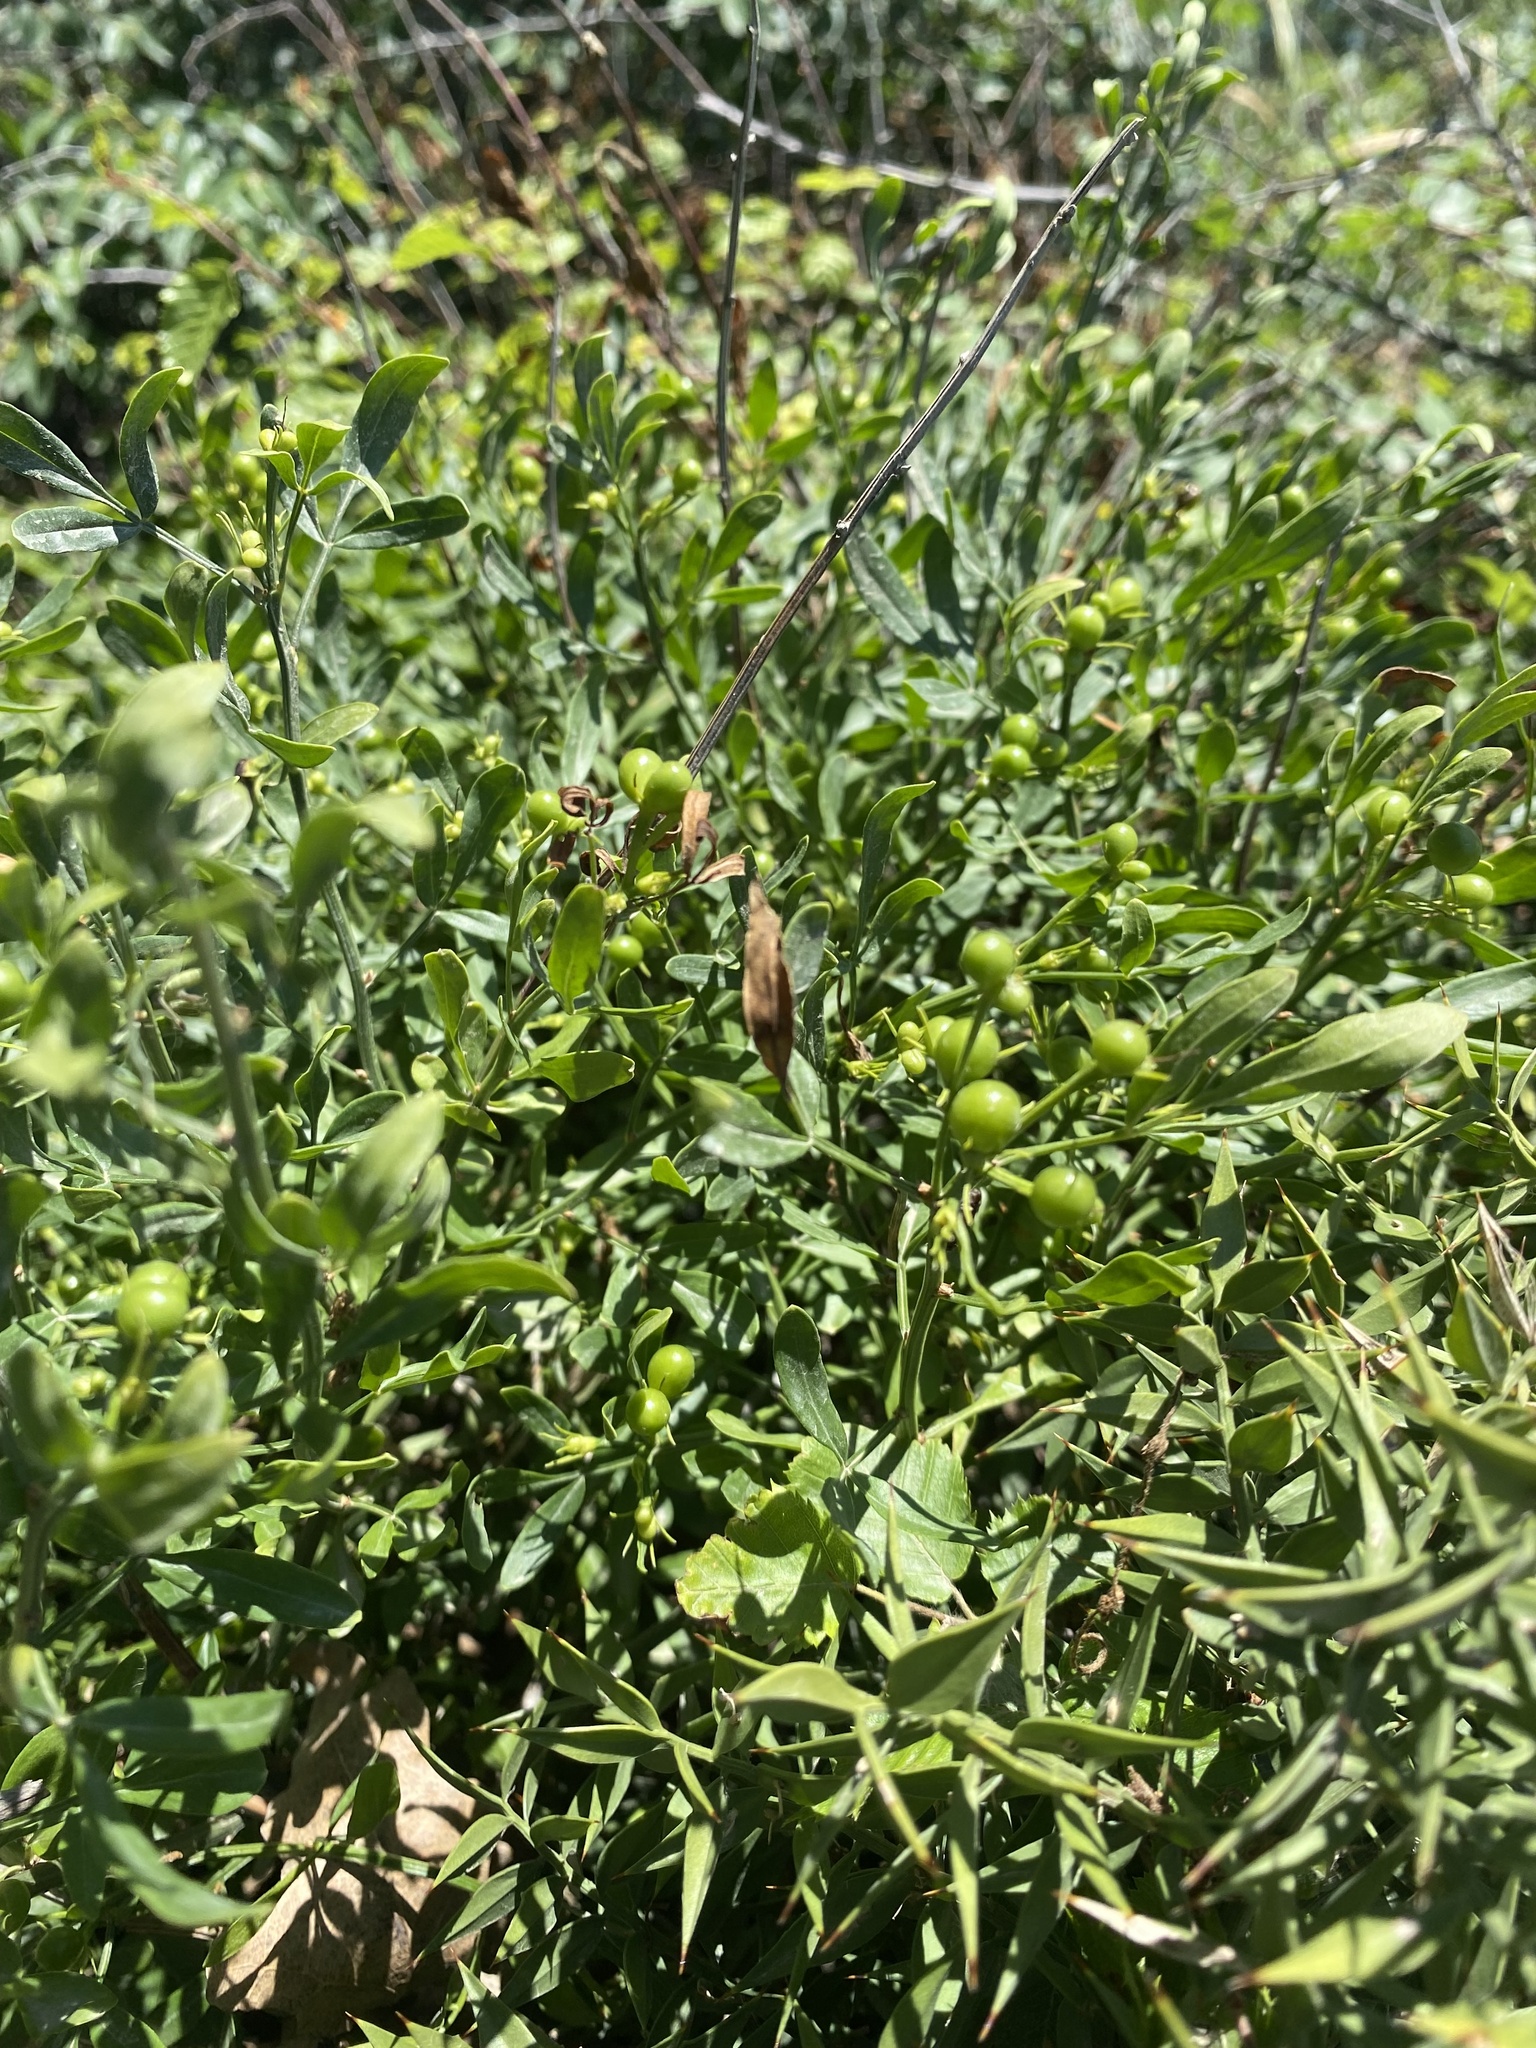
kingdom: Plantae
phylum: Tracheophyta
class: Magnoliopsida
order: Lamiales
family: Oleaceae
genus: Chrysojasminum
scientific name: Chrysojasminum fruticans
